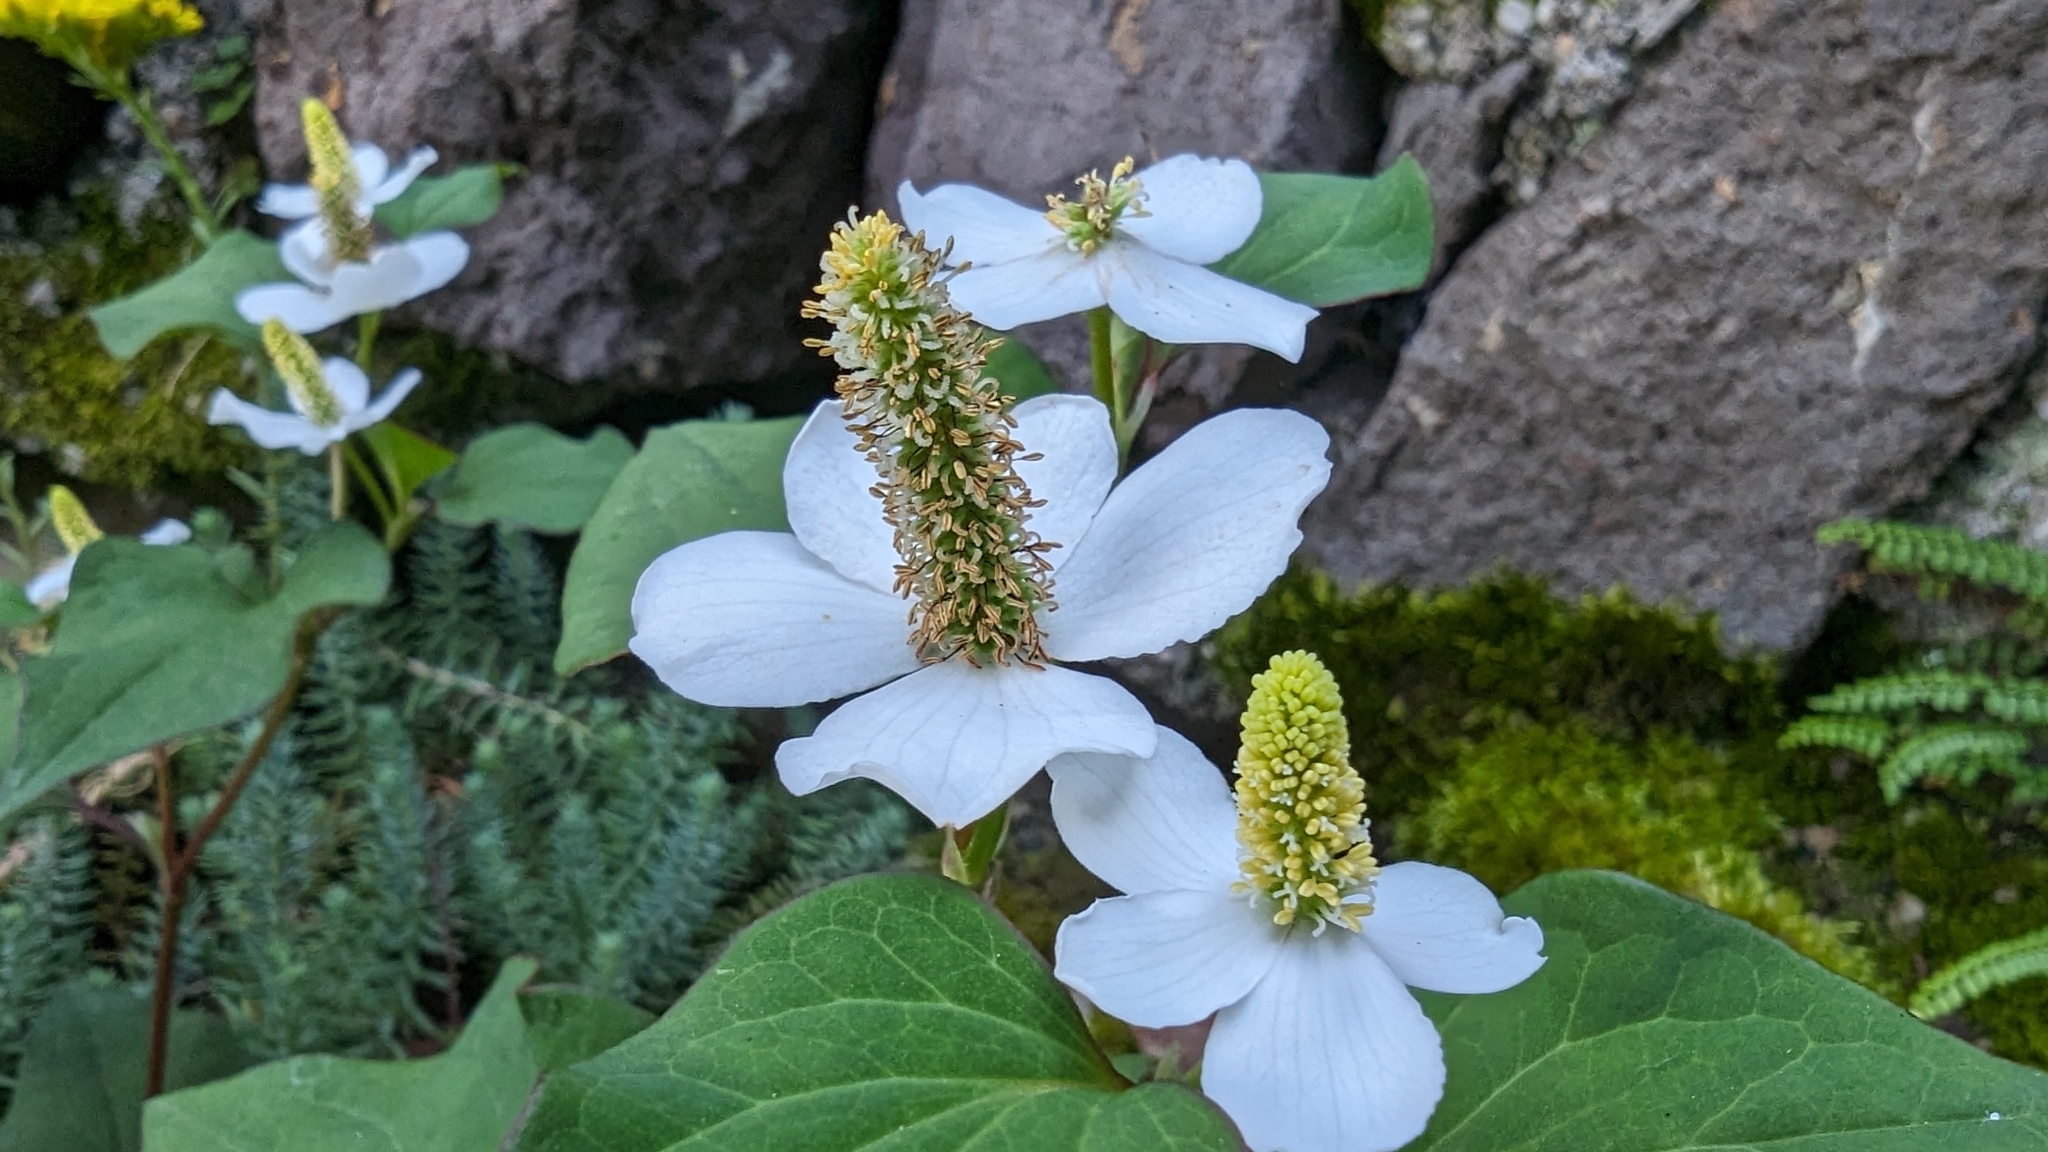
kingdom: Plantae
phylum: Tracheophyta
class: Magnoliopsida
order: Piperales
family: Saururaceae
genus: Houttuynia
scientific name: Houttuynia cordata
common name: Chameleon
